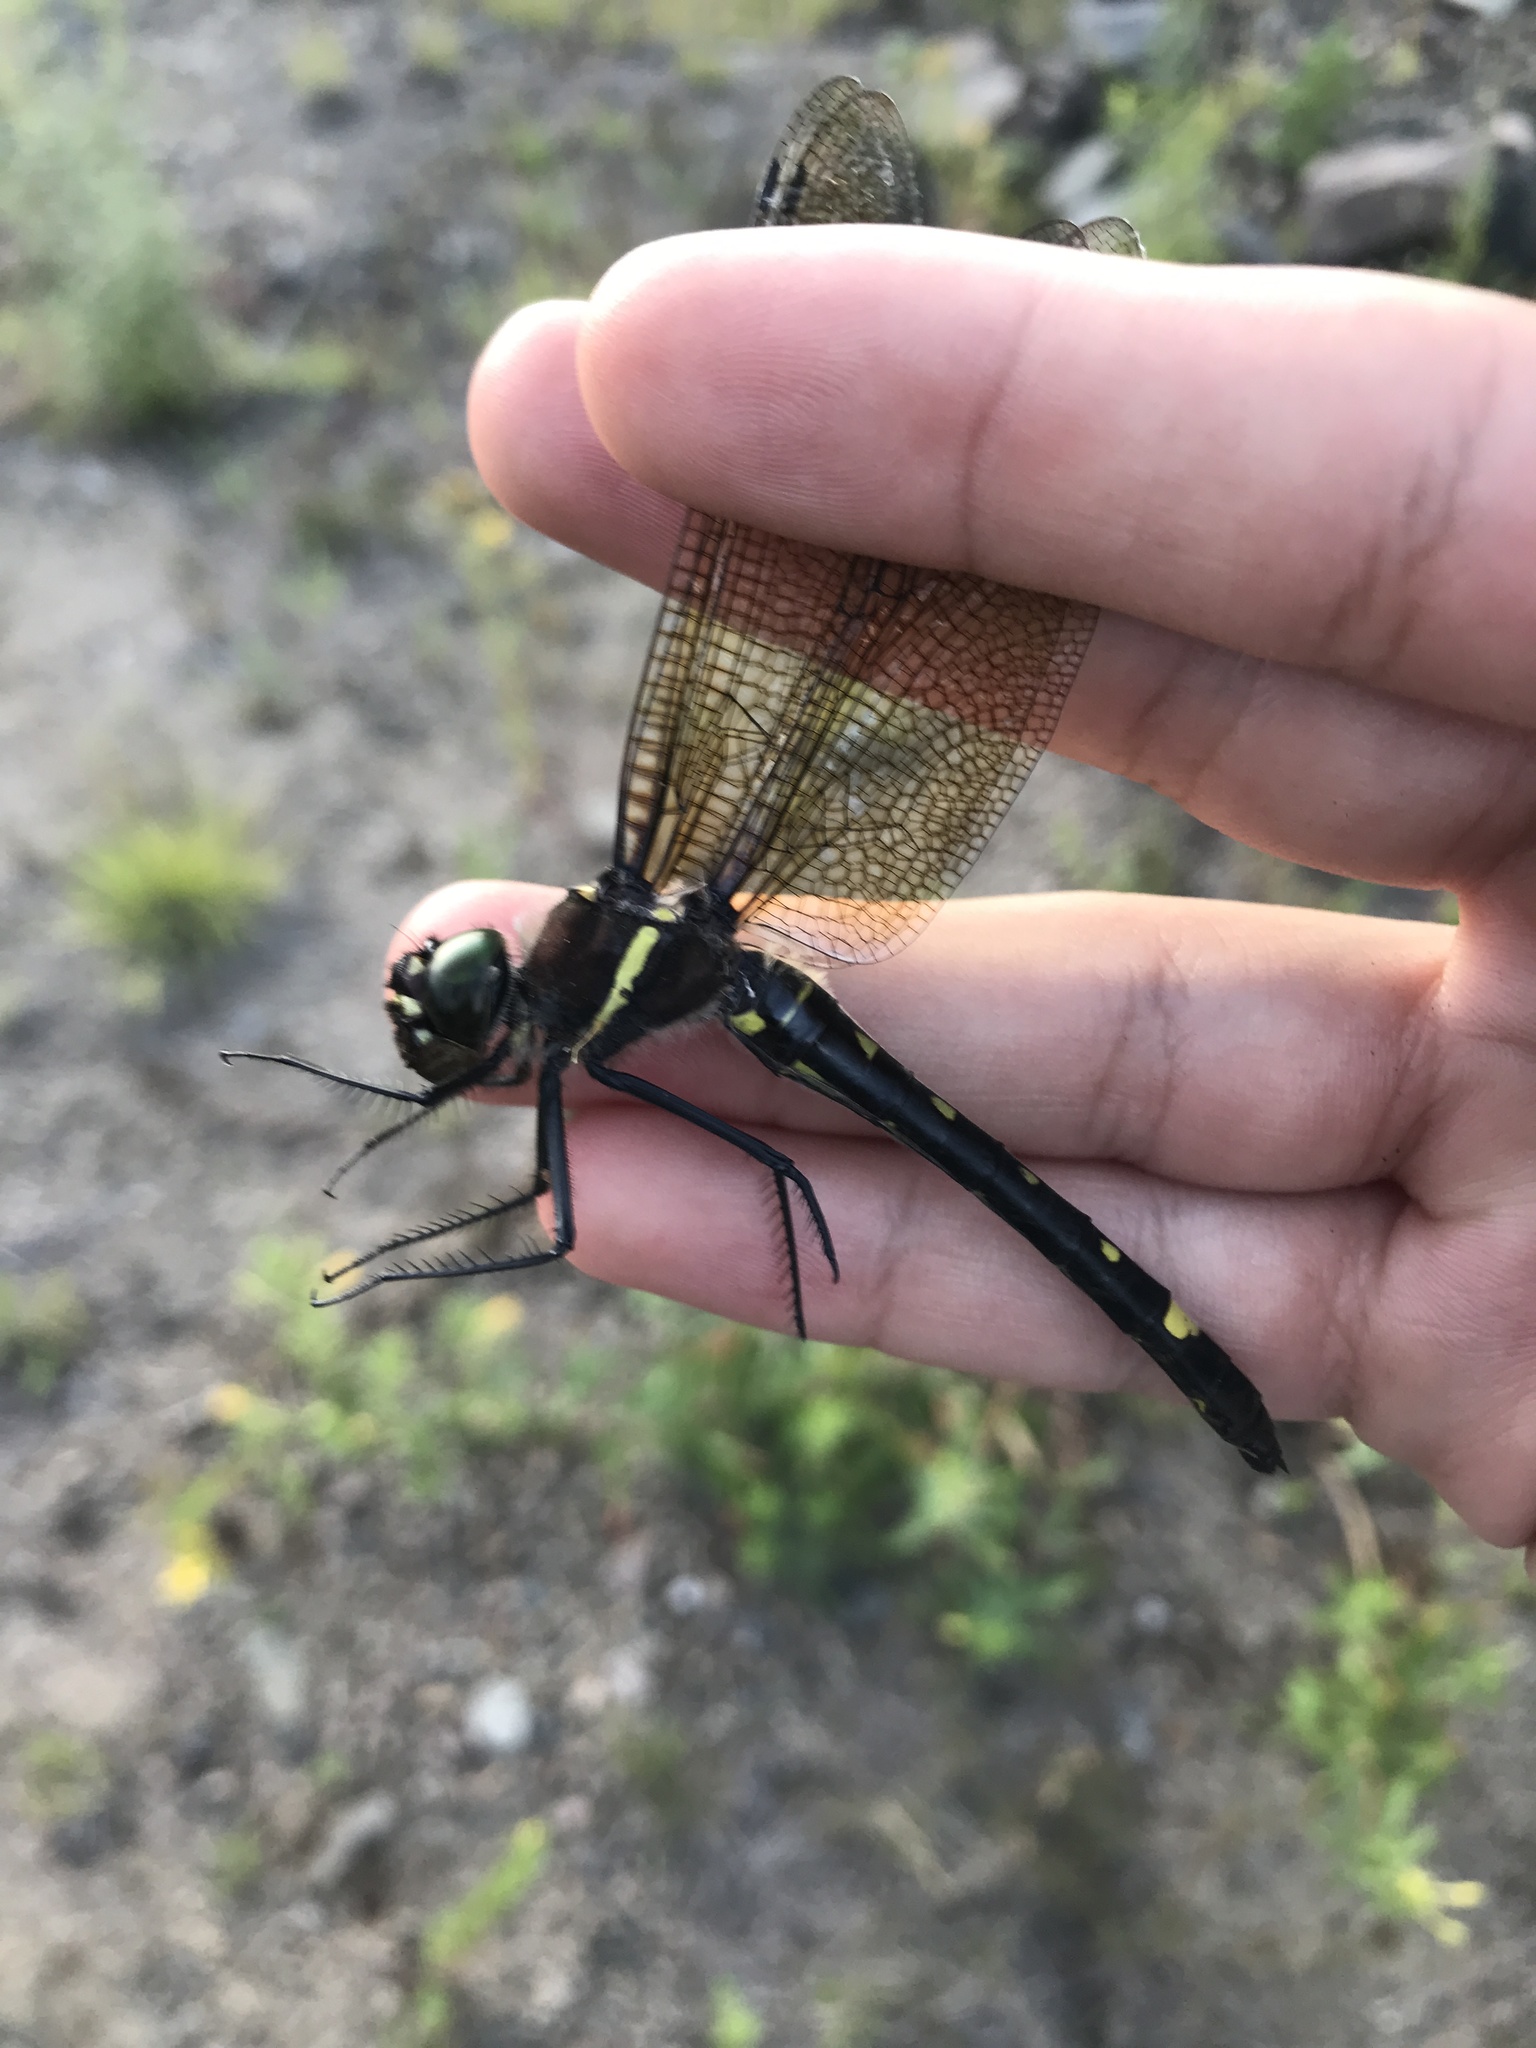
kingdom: Animalia
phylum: Arthropoda
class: Insecta
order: Odonata
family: Macromiidae
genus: Macromia
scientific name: Macromia illinoiensis
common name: Swift river cruiser
